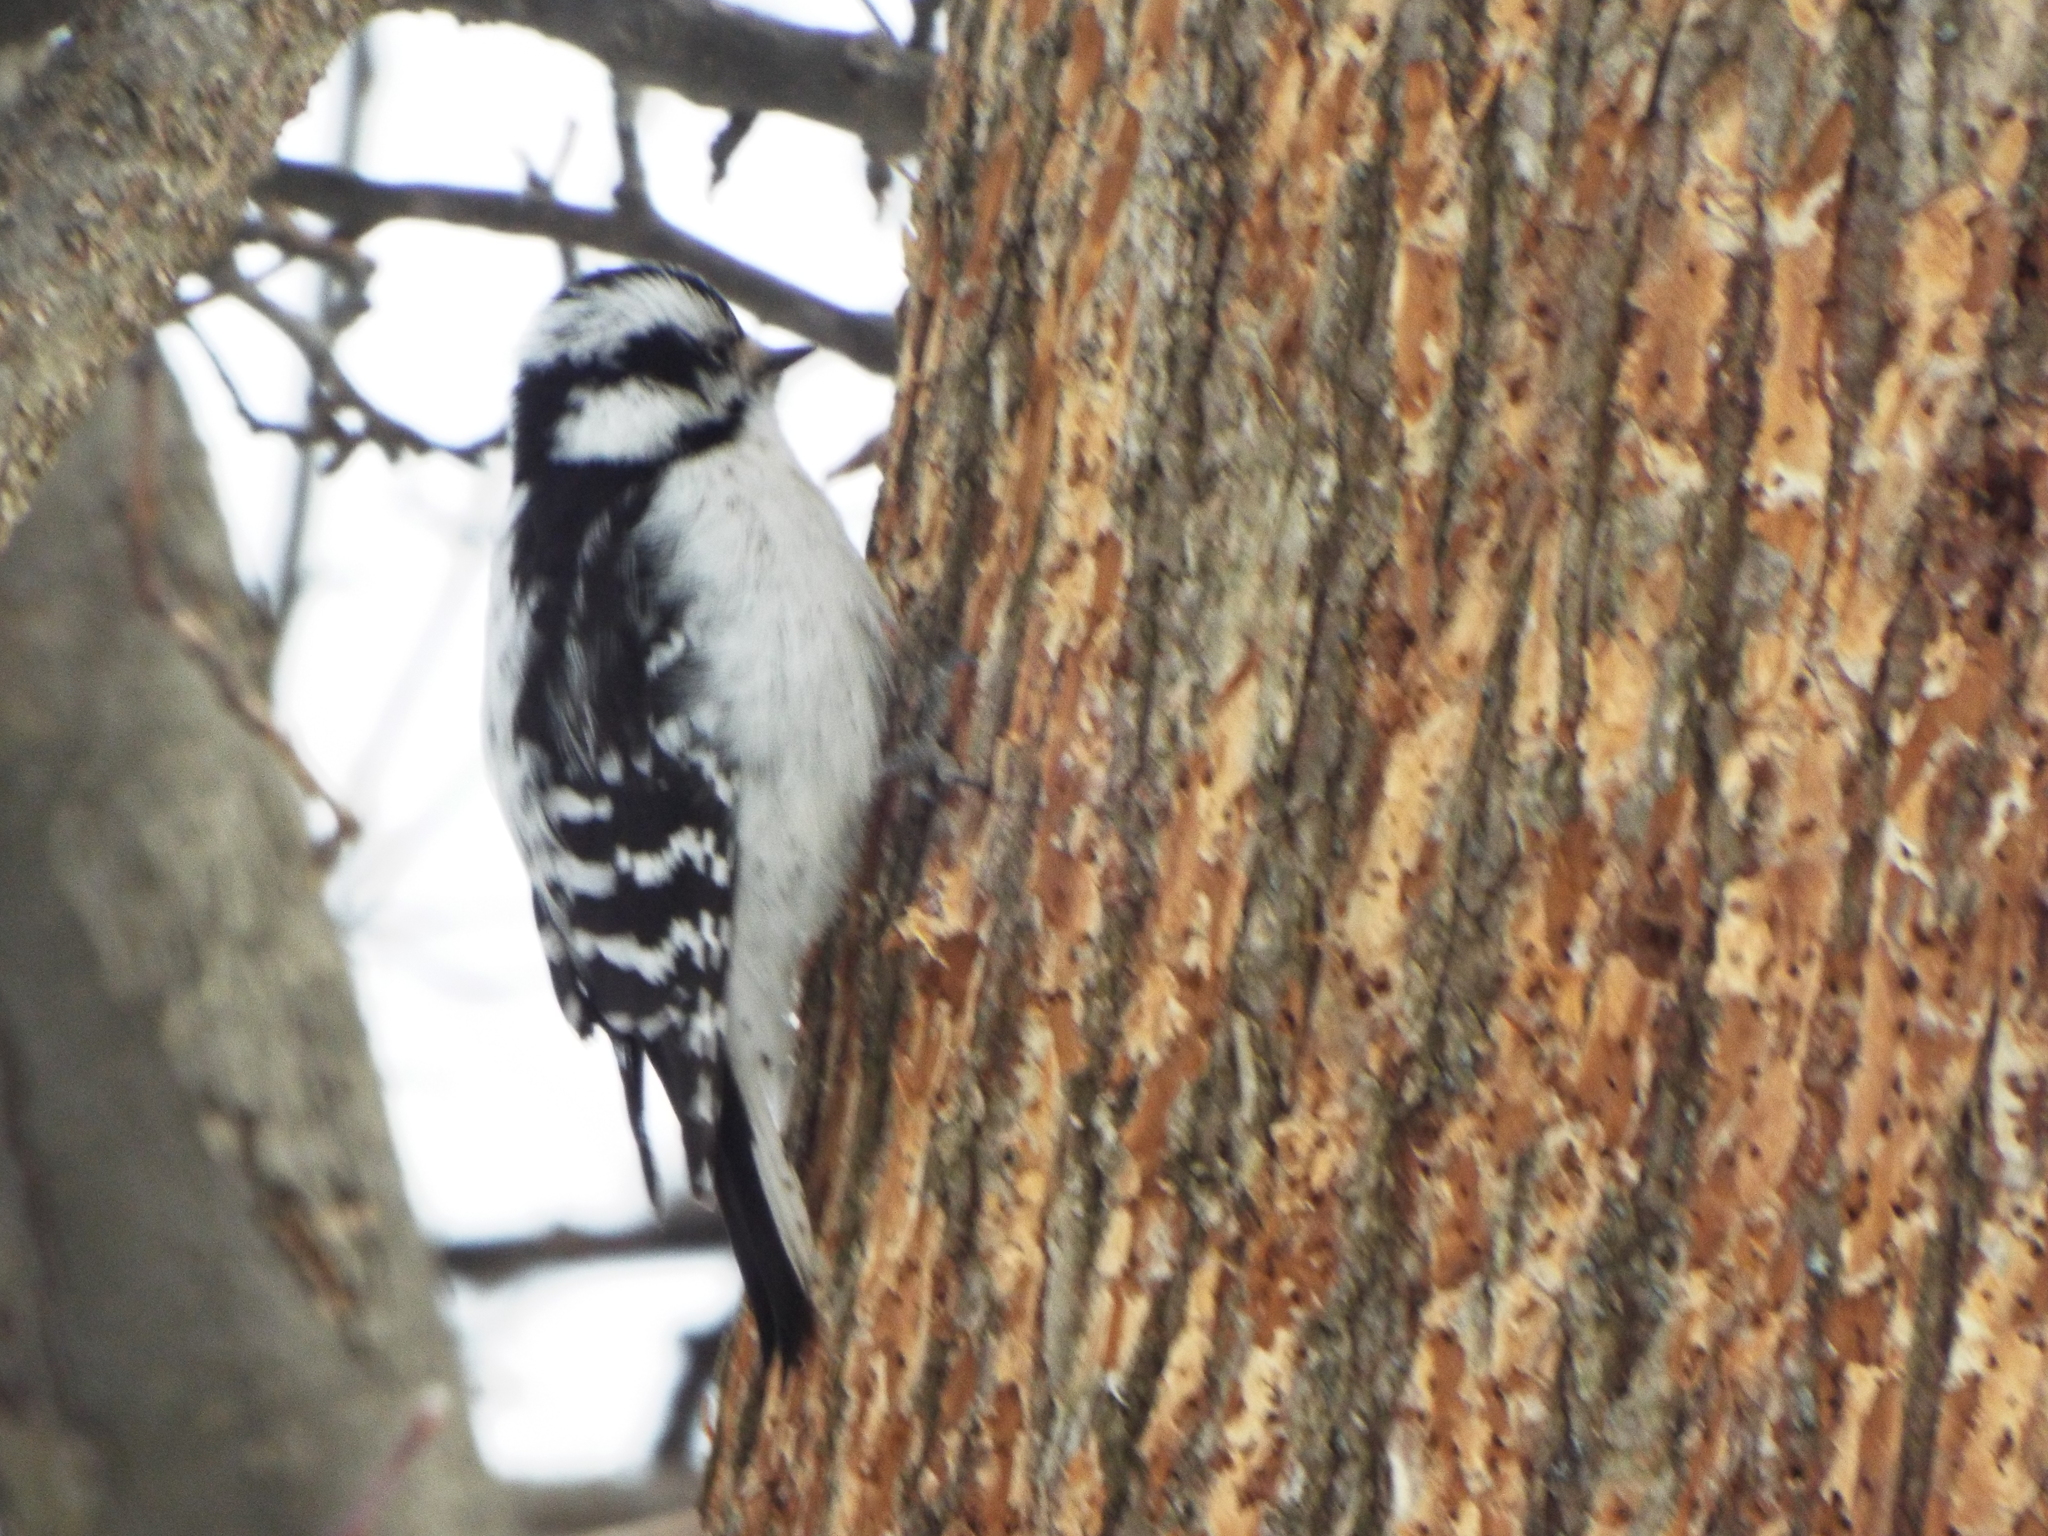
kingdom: Animalia
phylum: Chordata
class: Aves
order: Piciformes
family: Picidae
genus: Dryobates
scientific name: Dryobates pubescens
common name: Downy woodpecker
